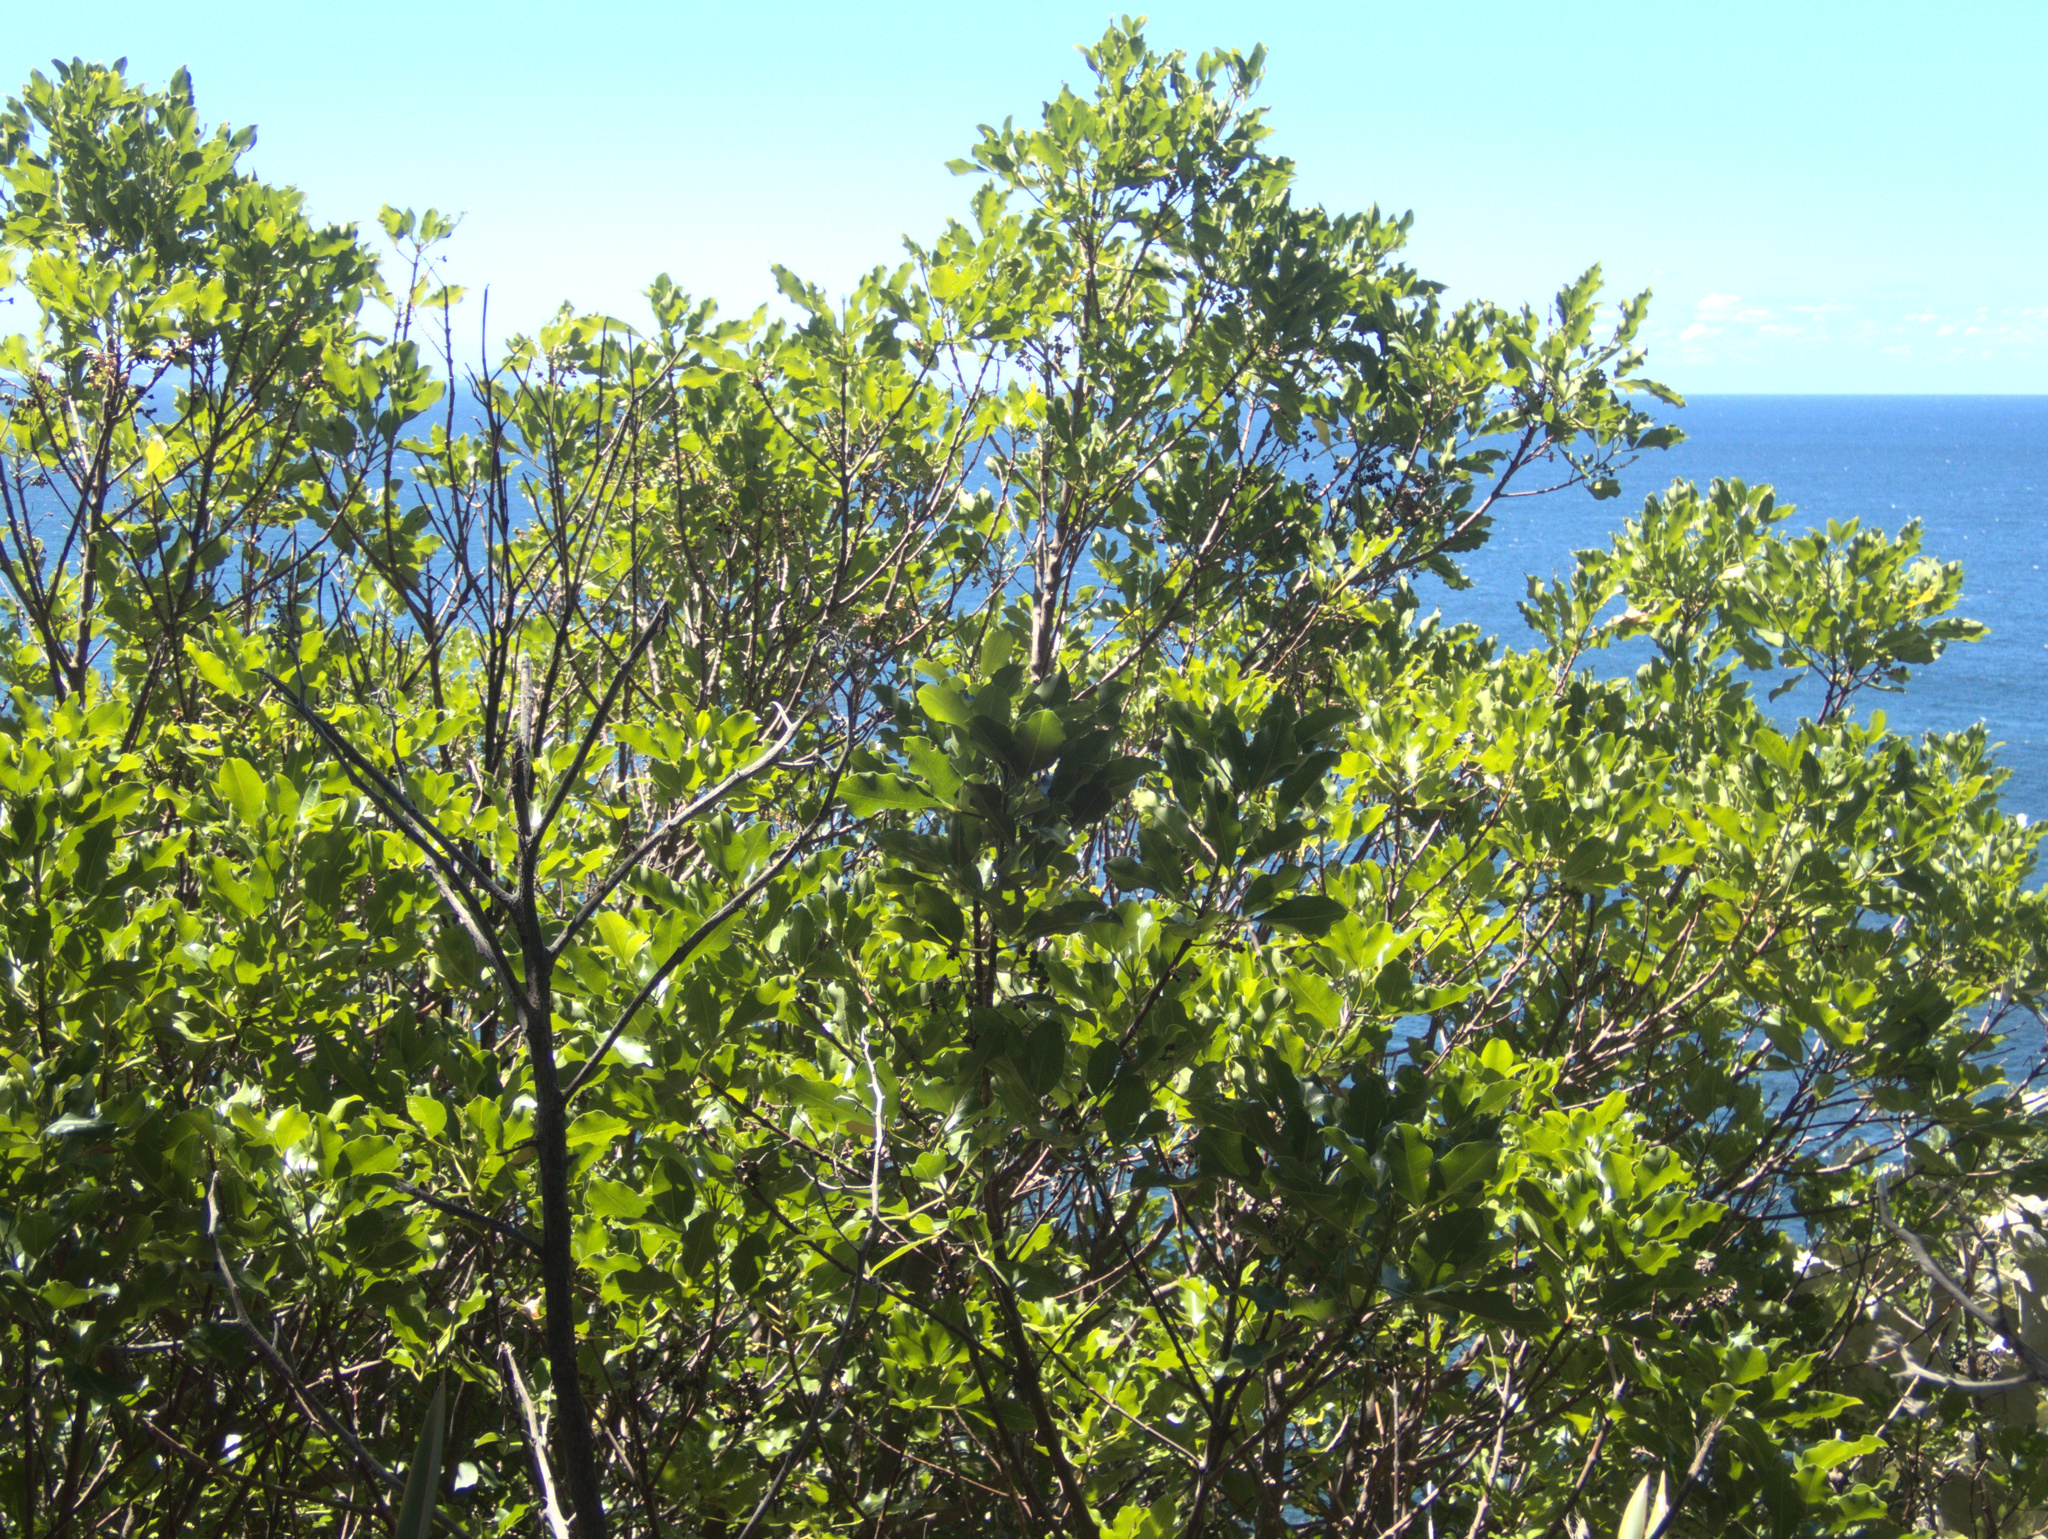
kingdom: Plantae
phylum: Tracheophyta
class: Magnoliopsida
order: Sapindales
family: Rutaceae
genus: Melicope
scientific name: Melicope ternata
